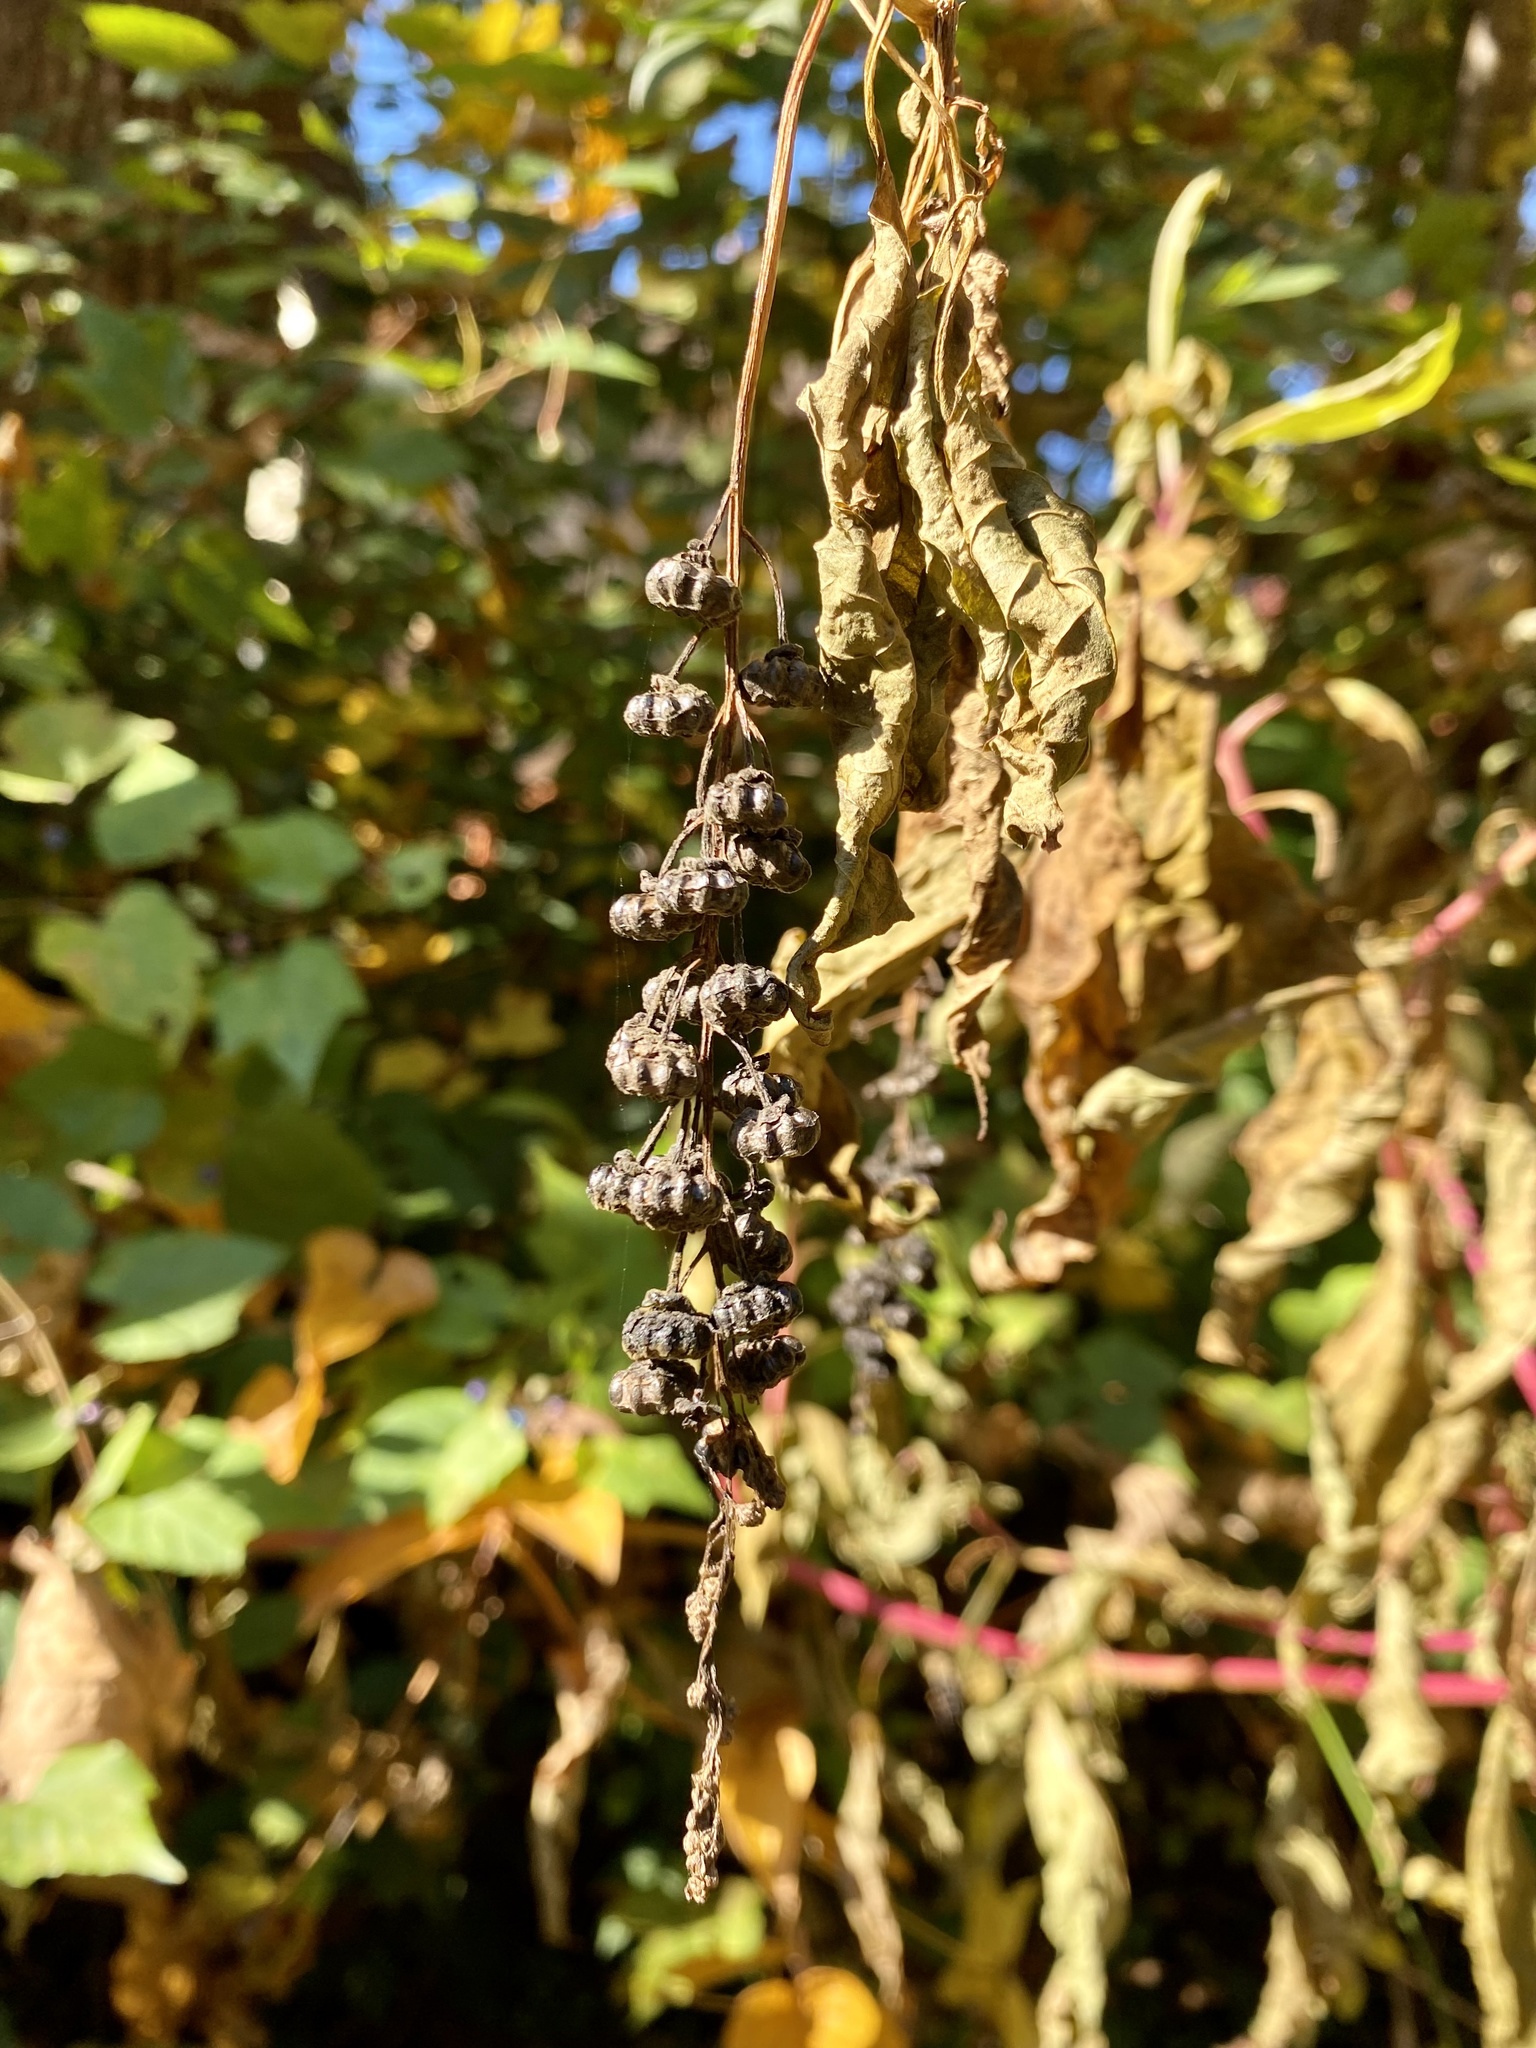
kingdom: Plantae
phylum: Tracheophyta
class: Magnoliopsida
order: Caryophyllales
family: Phytolaccaceae
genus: Phytolacca
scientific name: Phytolacca americana
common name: American pokeweed
